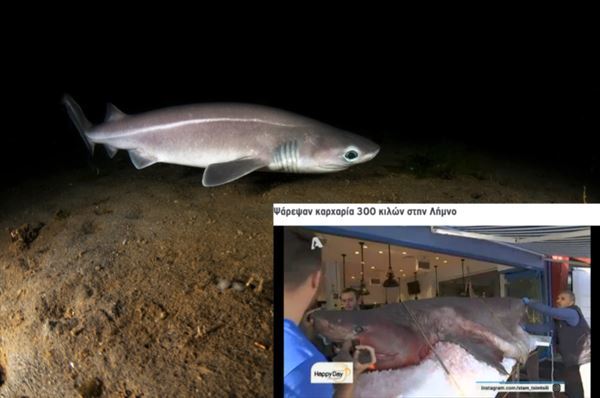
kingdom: Animalia
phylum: Chordata
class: Elasmobranchii
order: Hexanchiformes
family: Hexanchidae
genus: Hexanchus
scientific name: Hexanchus griseus
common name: Bluntnose sixgill shark
